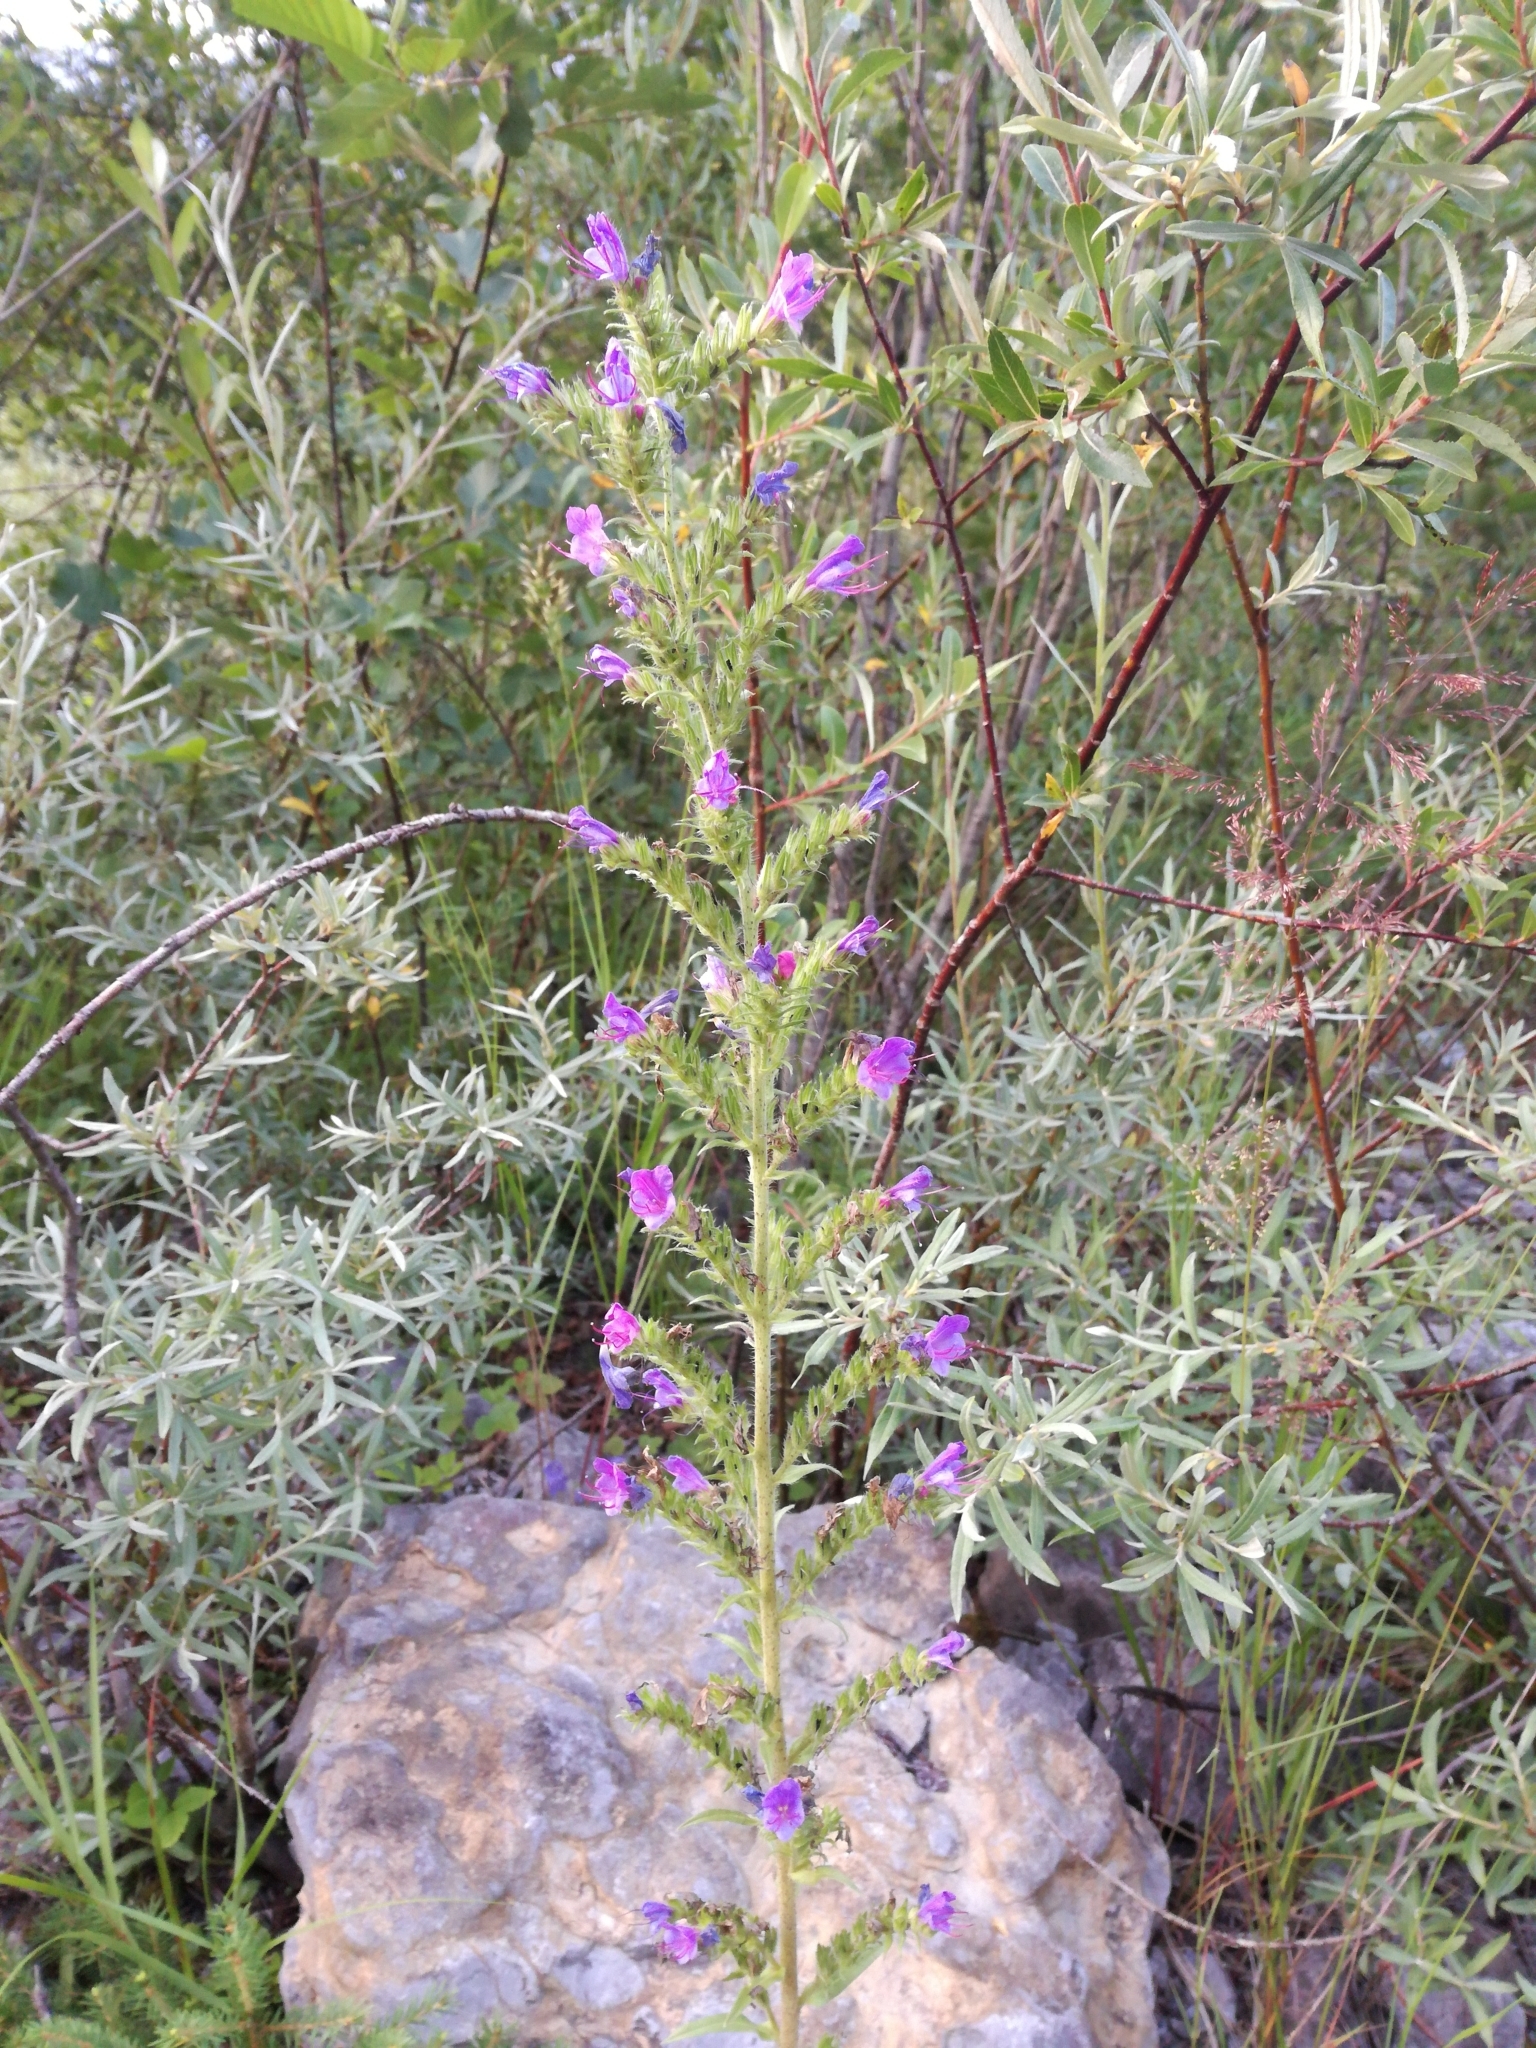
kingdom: Plantae
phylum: Tracheophyta
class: Magnoliopsida
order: Boraginales
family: Boraginaceae
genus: Echium
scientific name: Echium vulgare
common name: Common viper's bugloss
